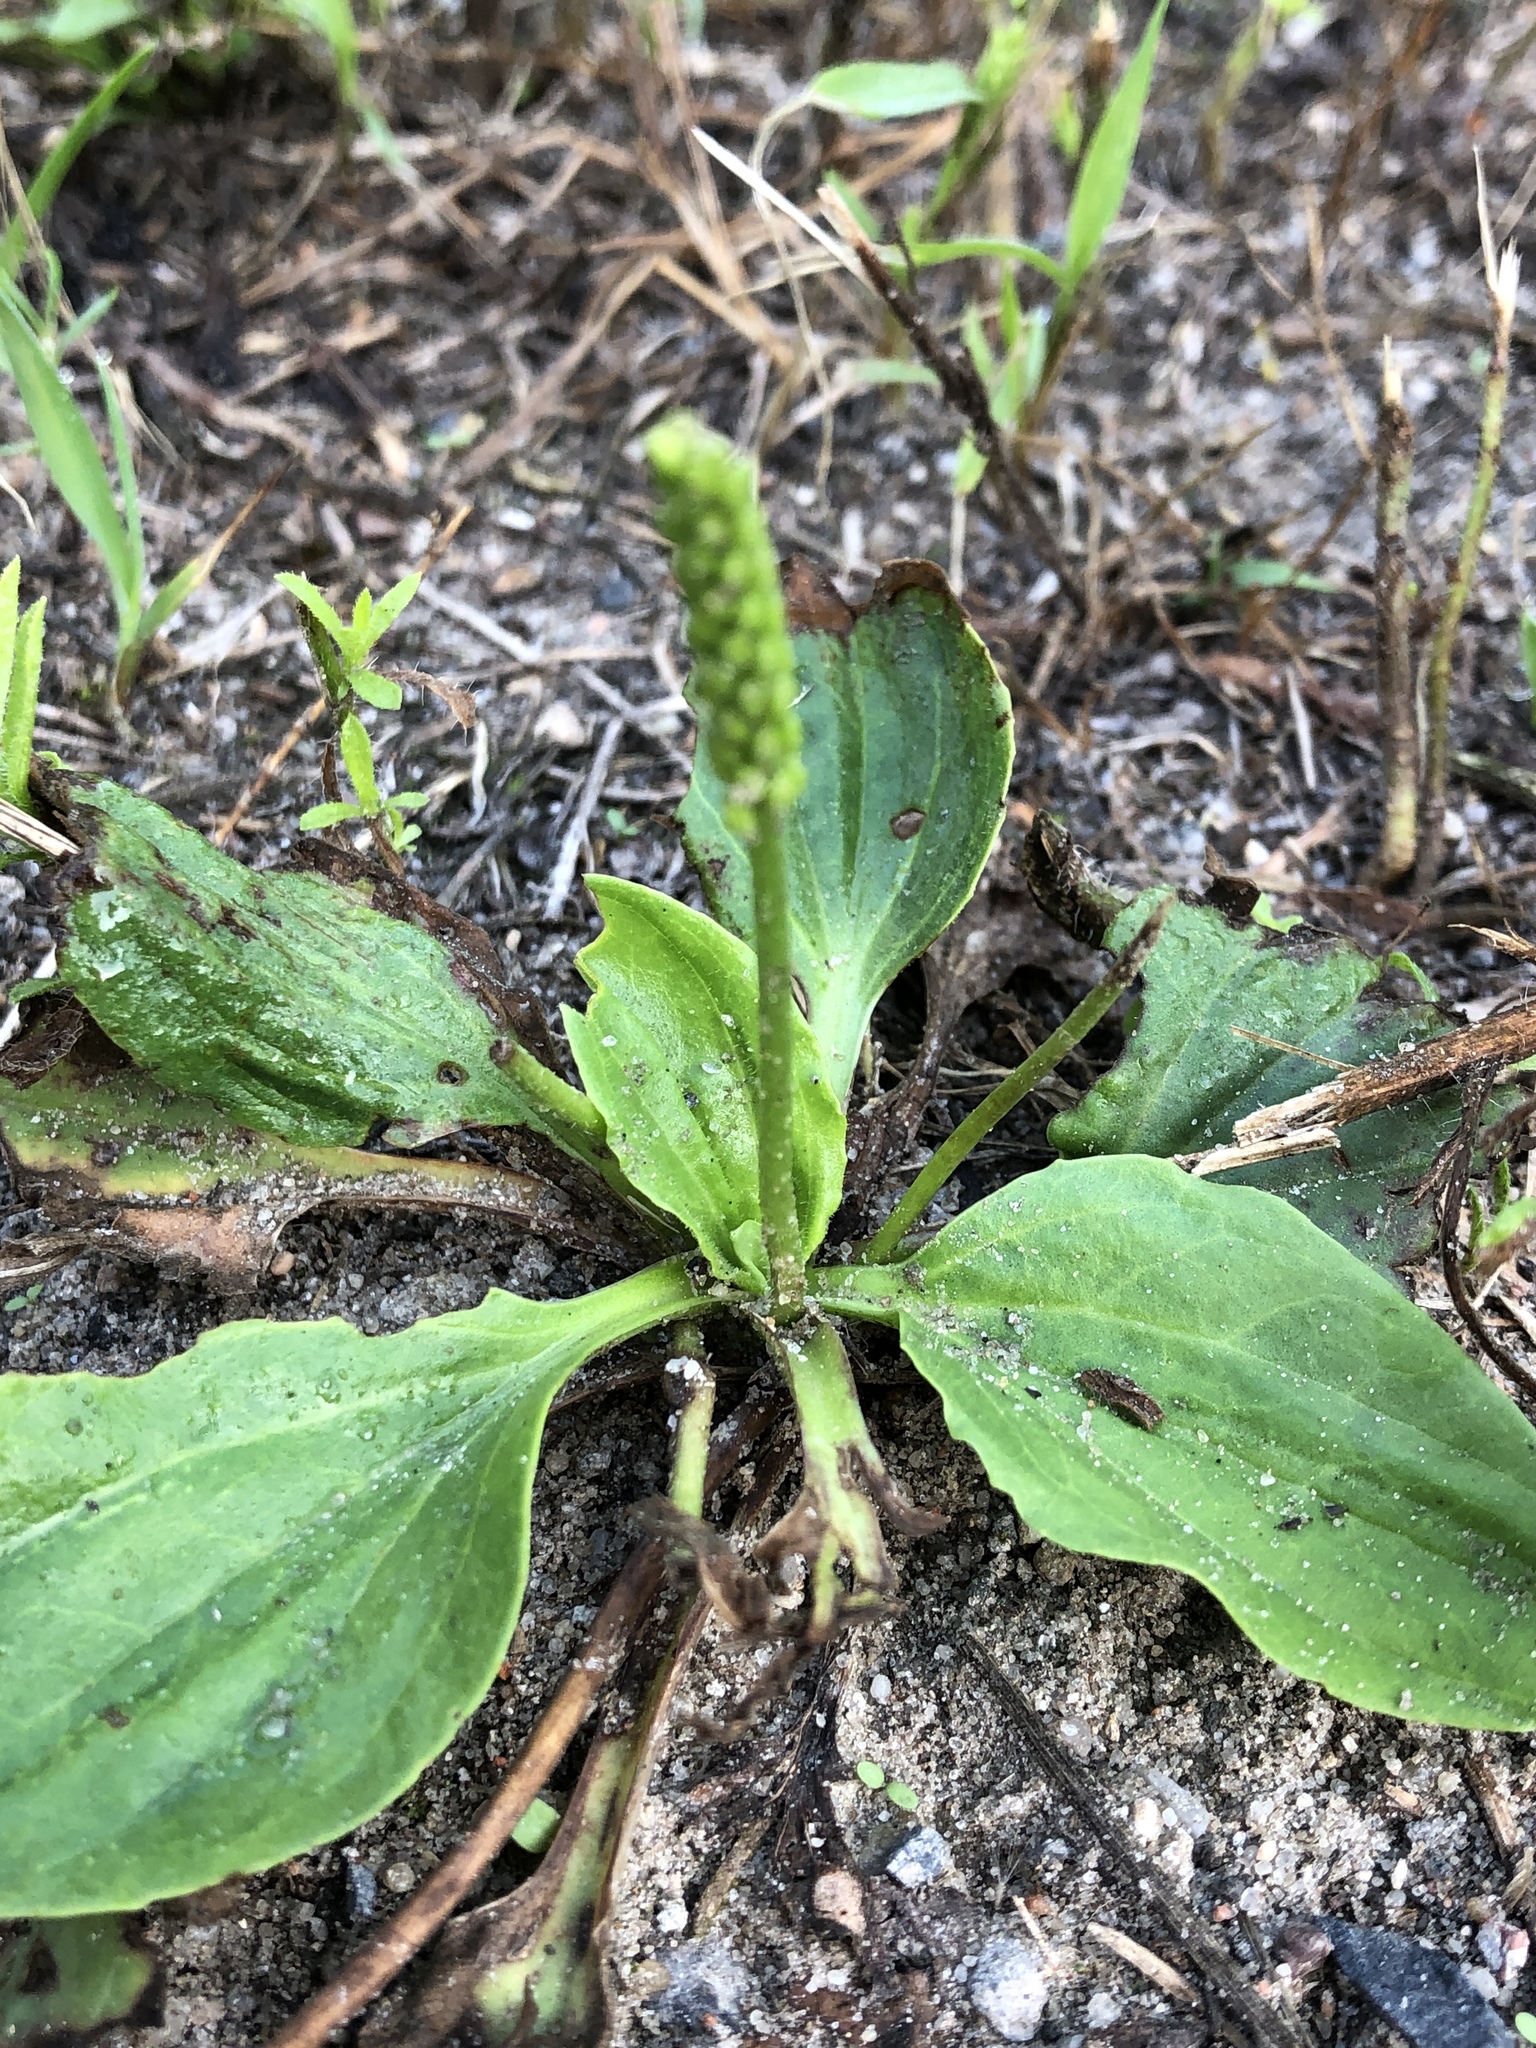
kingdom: Plantae
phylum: Tracheophyta
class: Magnoliopsida
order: Lamiales
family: Plantaginaceae
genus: Plantago
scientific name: Plantago major
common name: Common plantain
